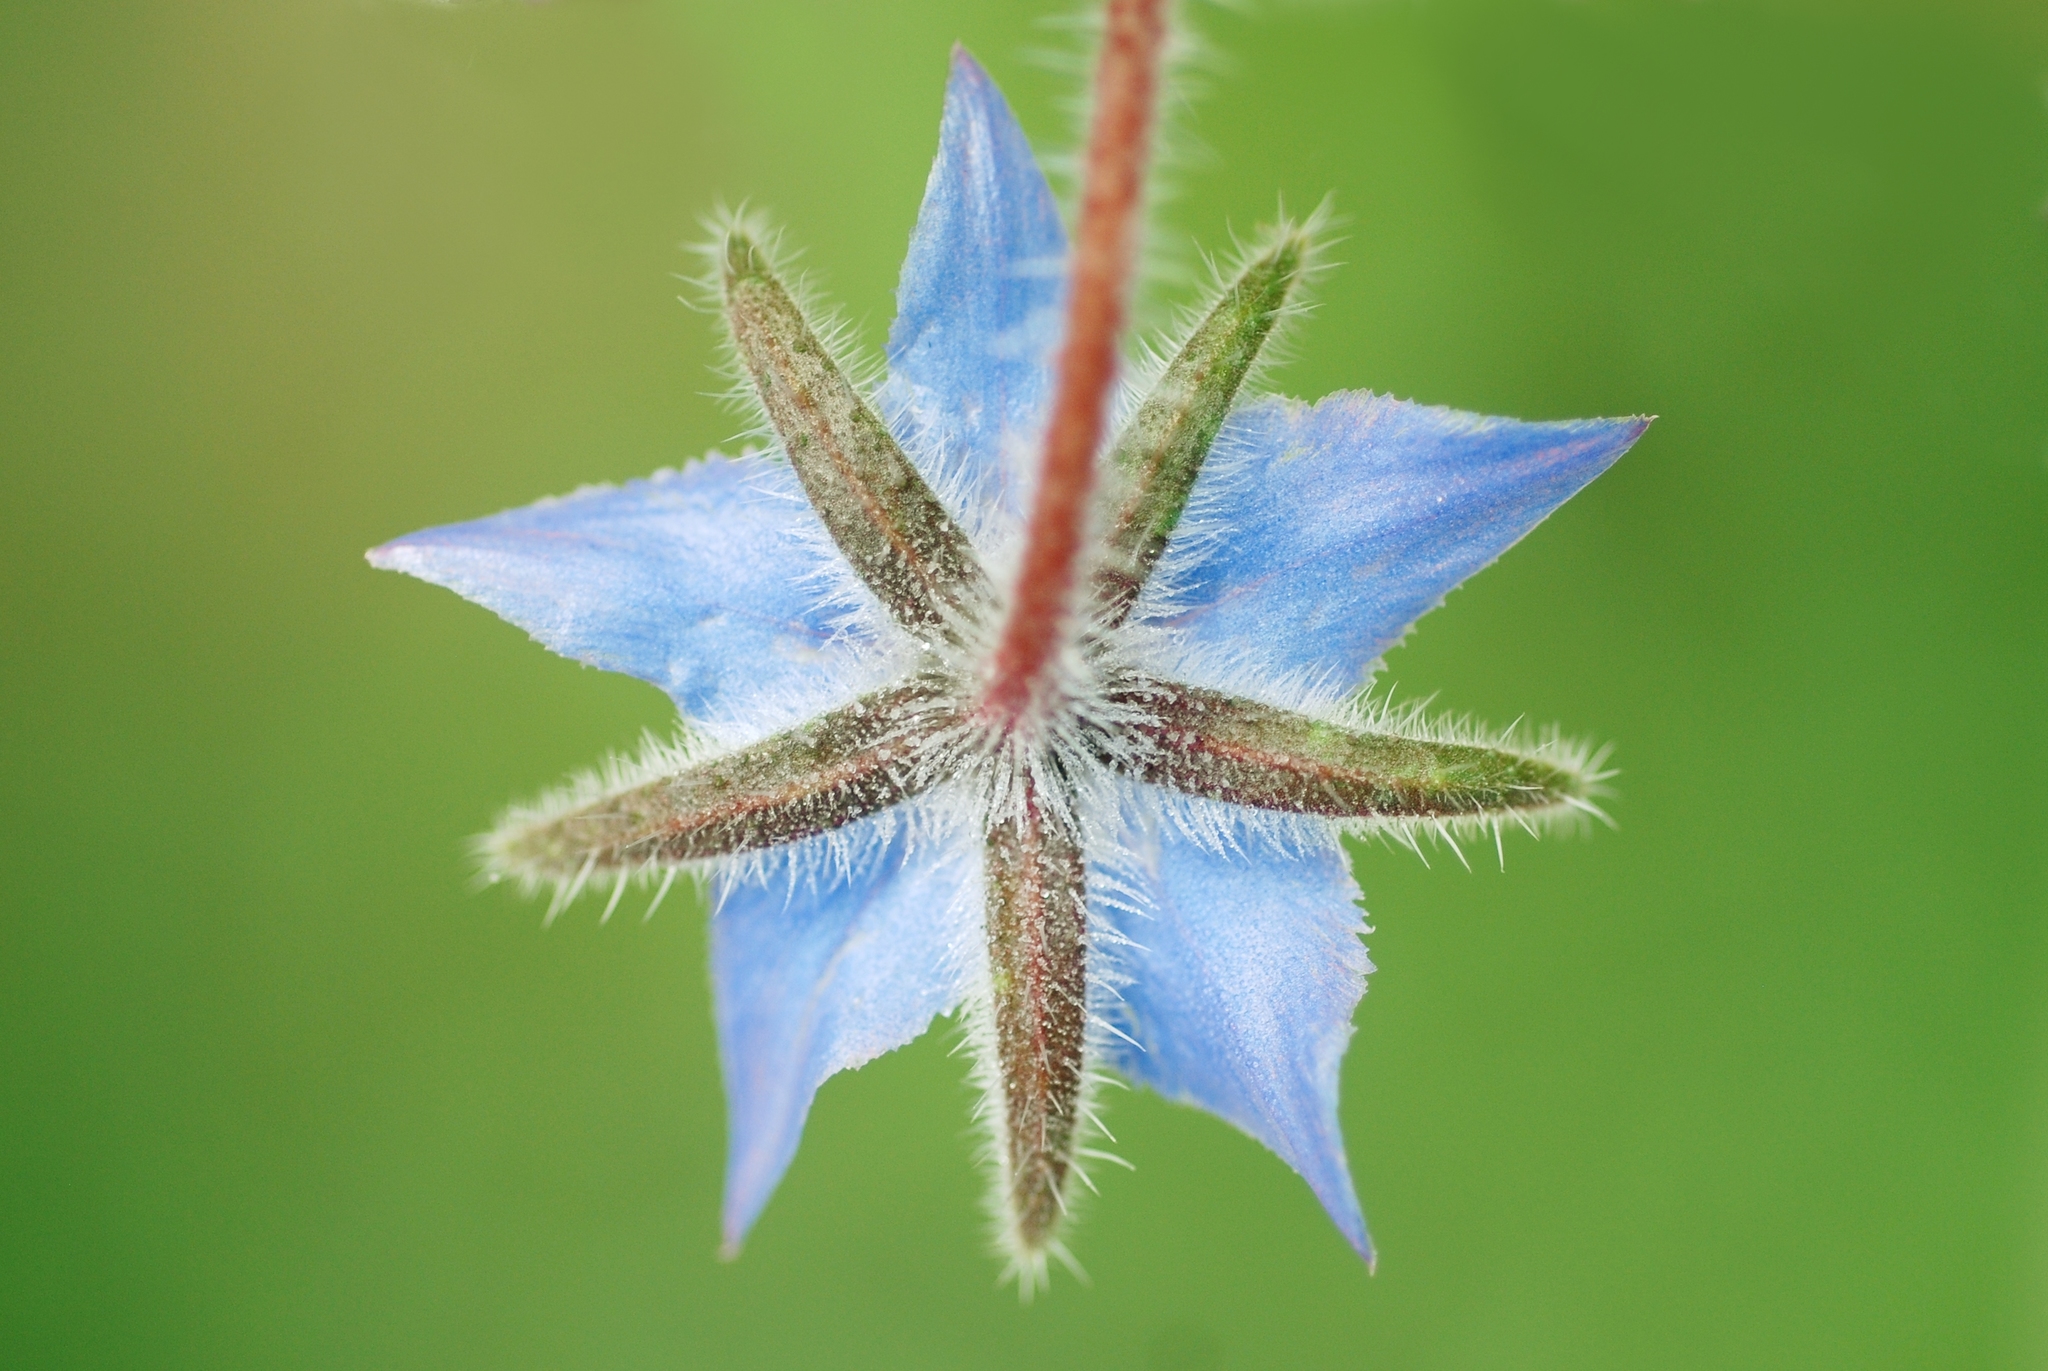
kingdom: Plantae
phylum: Tracheophyta
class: Magnoliopsida
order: Boraginales
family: Boraginaceae
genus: Borago
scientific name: Borago officinalis
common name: Borage
